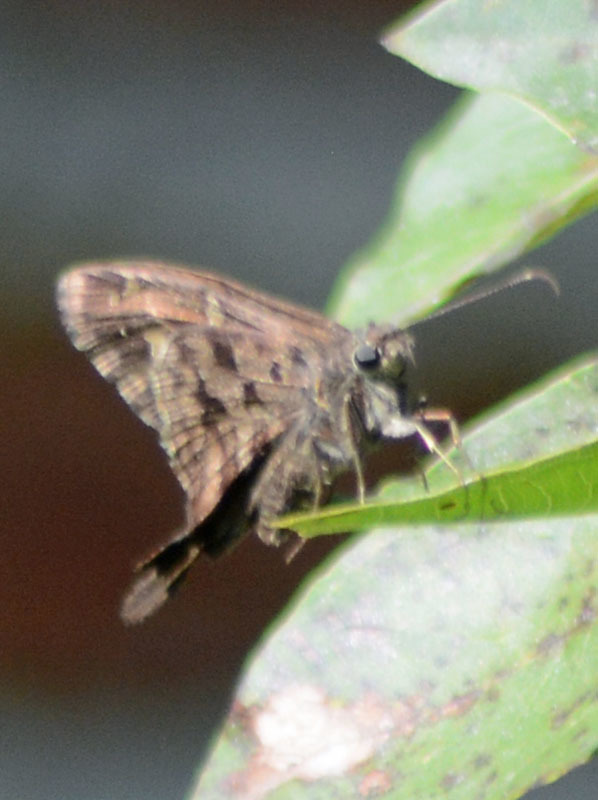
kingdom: Animalia
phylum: Arthropoda
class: Insecta
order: Lepidoptera
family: Hesperiidae
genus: Thorybes
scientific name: Thorybes
